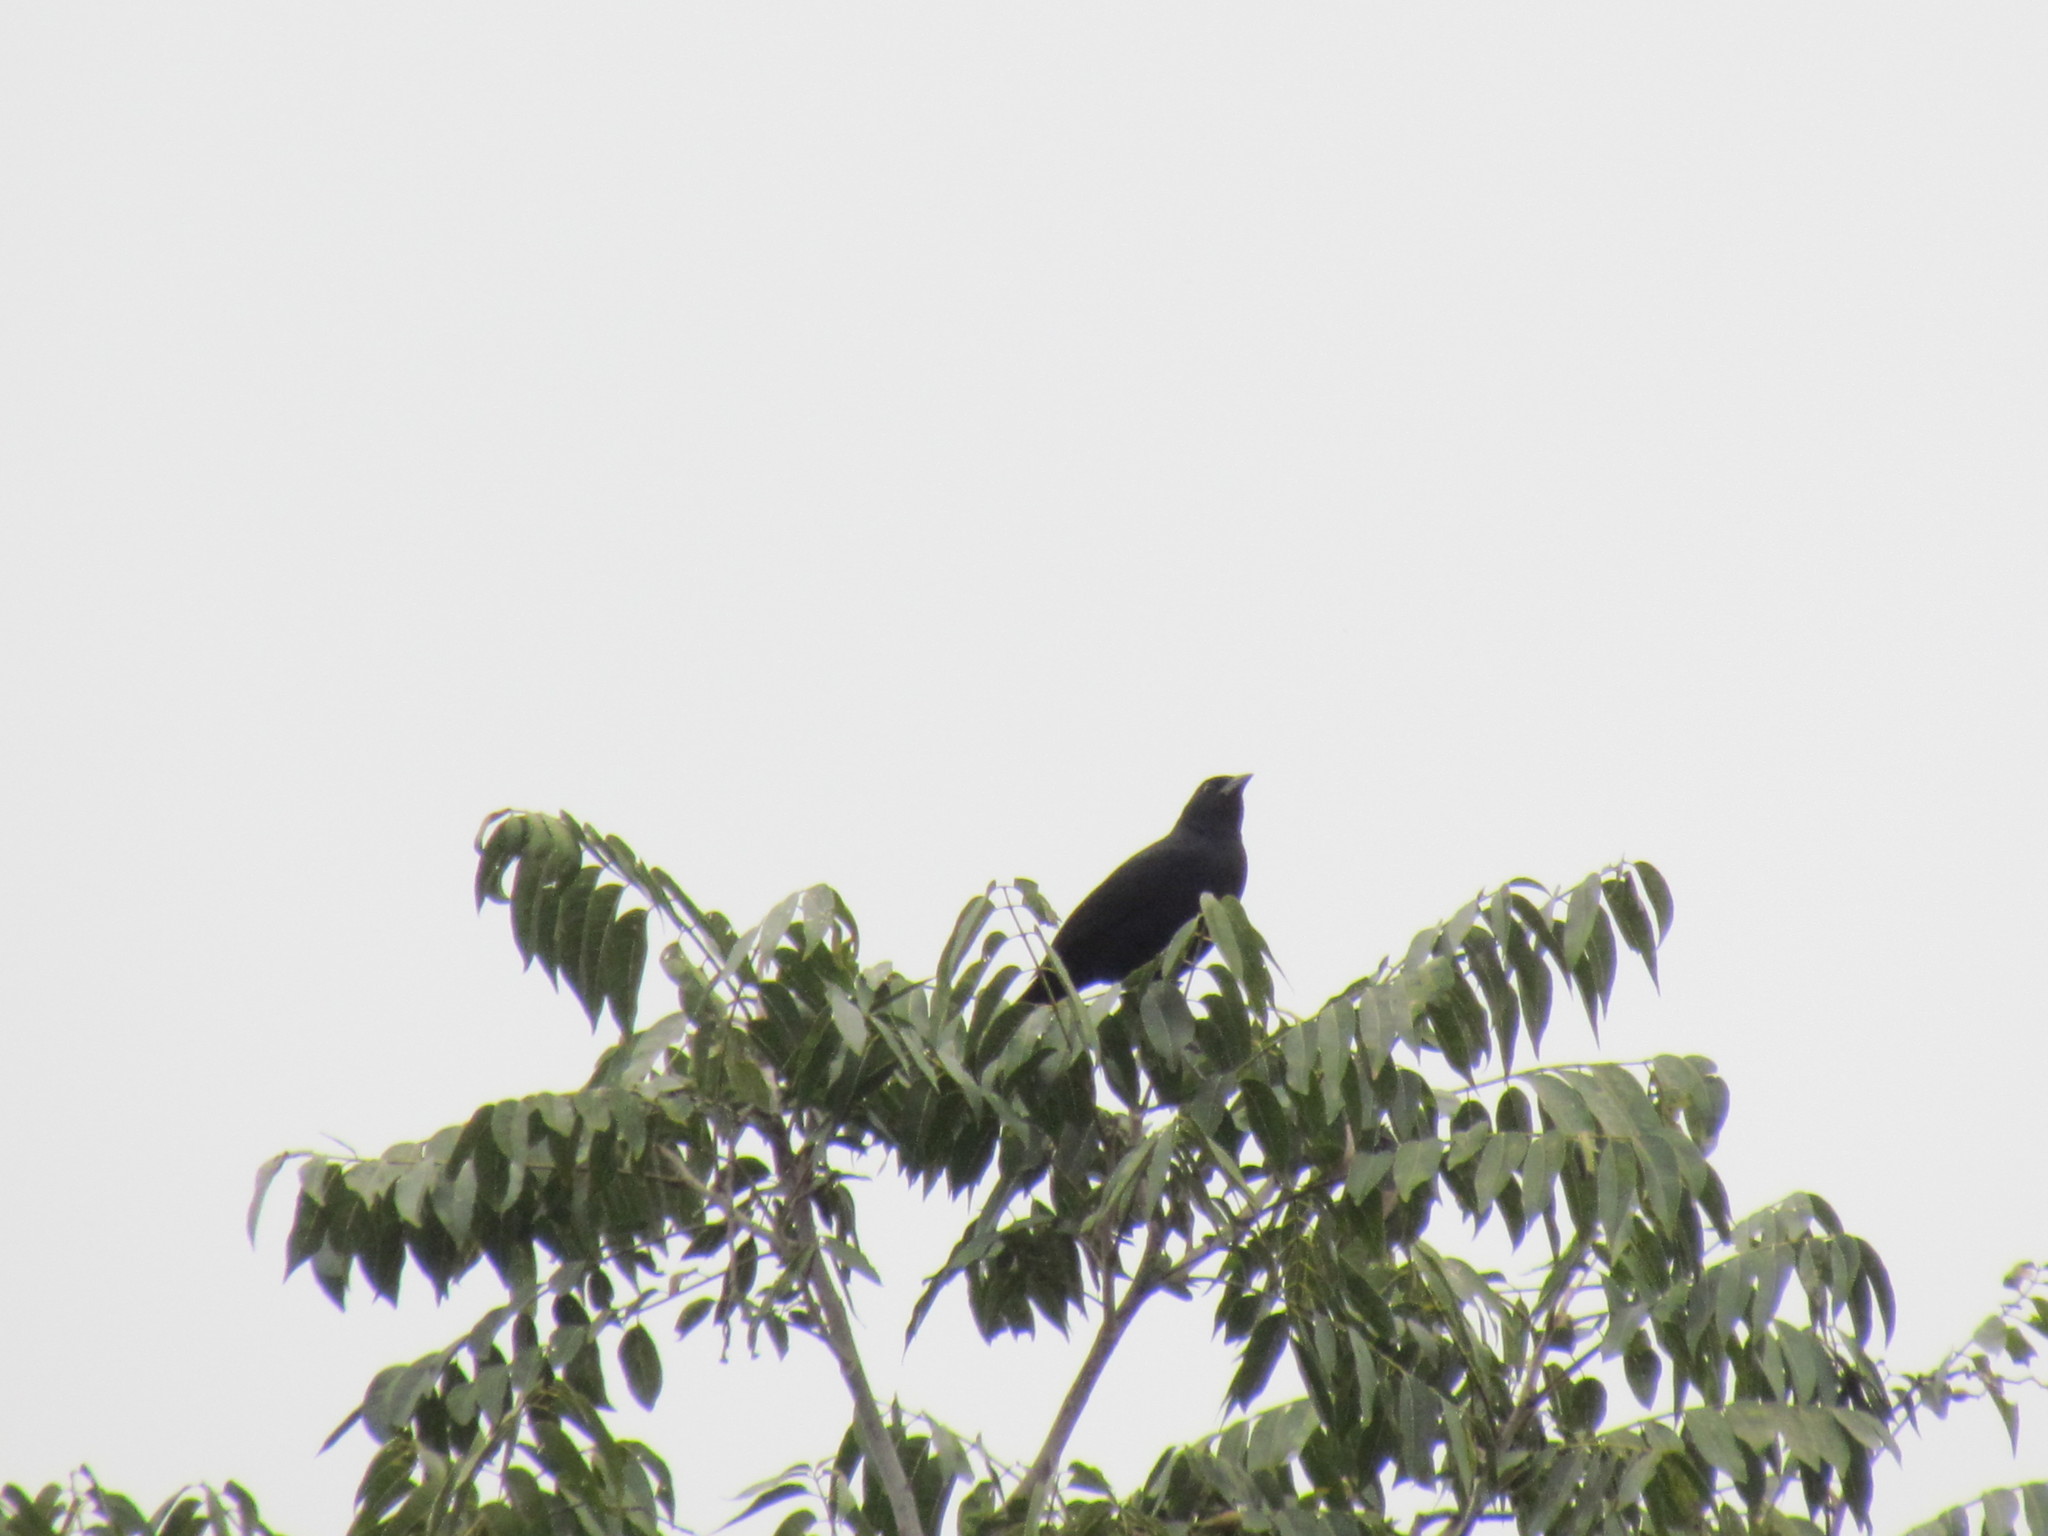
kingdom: Animalia
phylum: Chordata
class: Aves
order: Passeriformes
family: Icteridae
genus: Dives
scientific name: Dives dives
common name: Melodious blackbird
